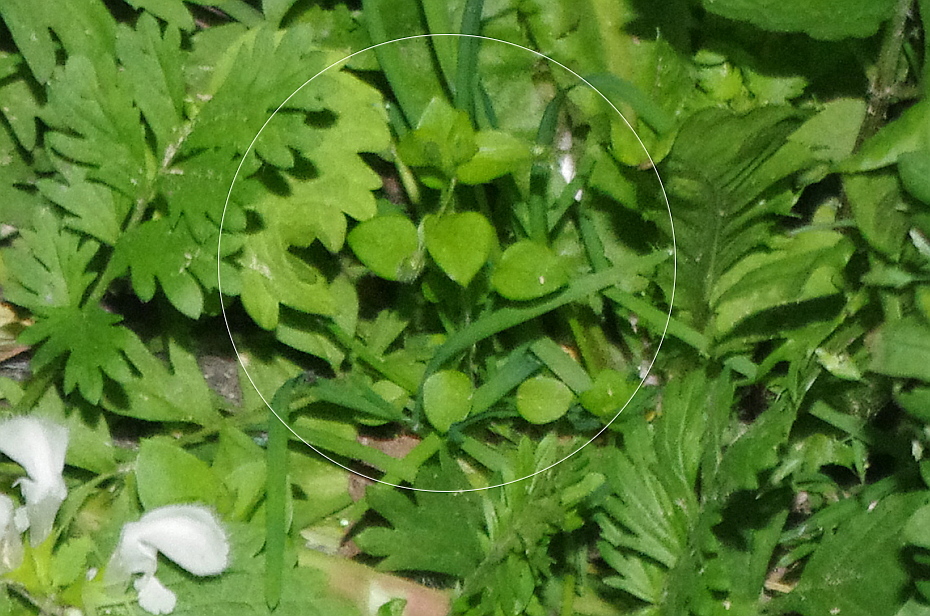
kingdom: Plantae
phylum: Tracheophyta
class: Magnoliopsida
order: Caryophyllales
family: Caryophyllaceae
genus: Stellaria
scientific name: Stellaria media
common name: Common chickweed
